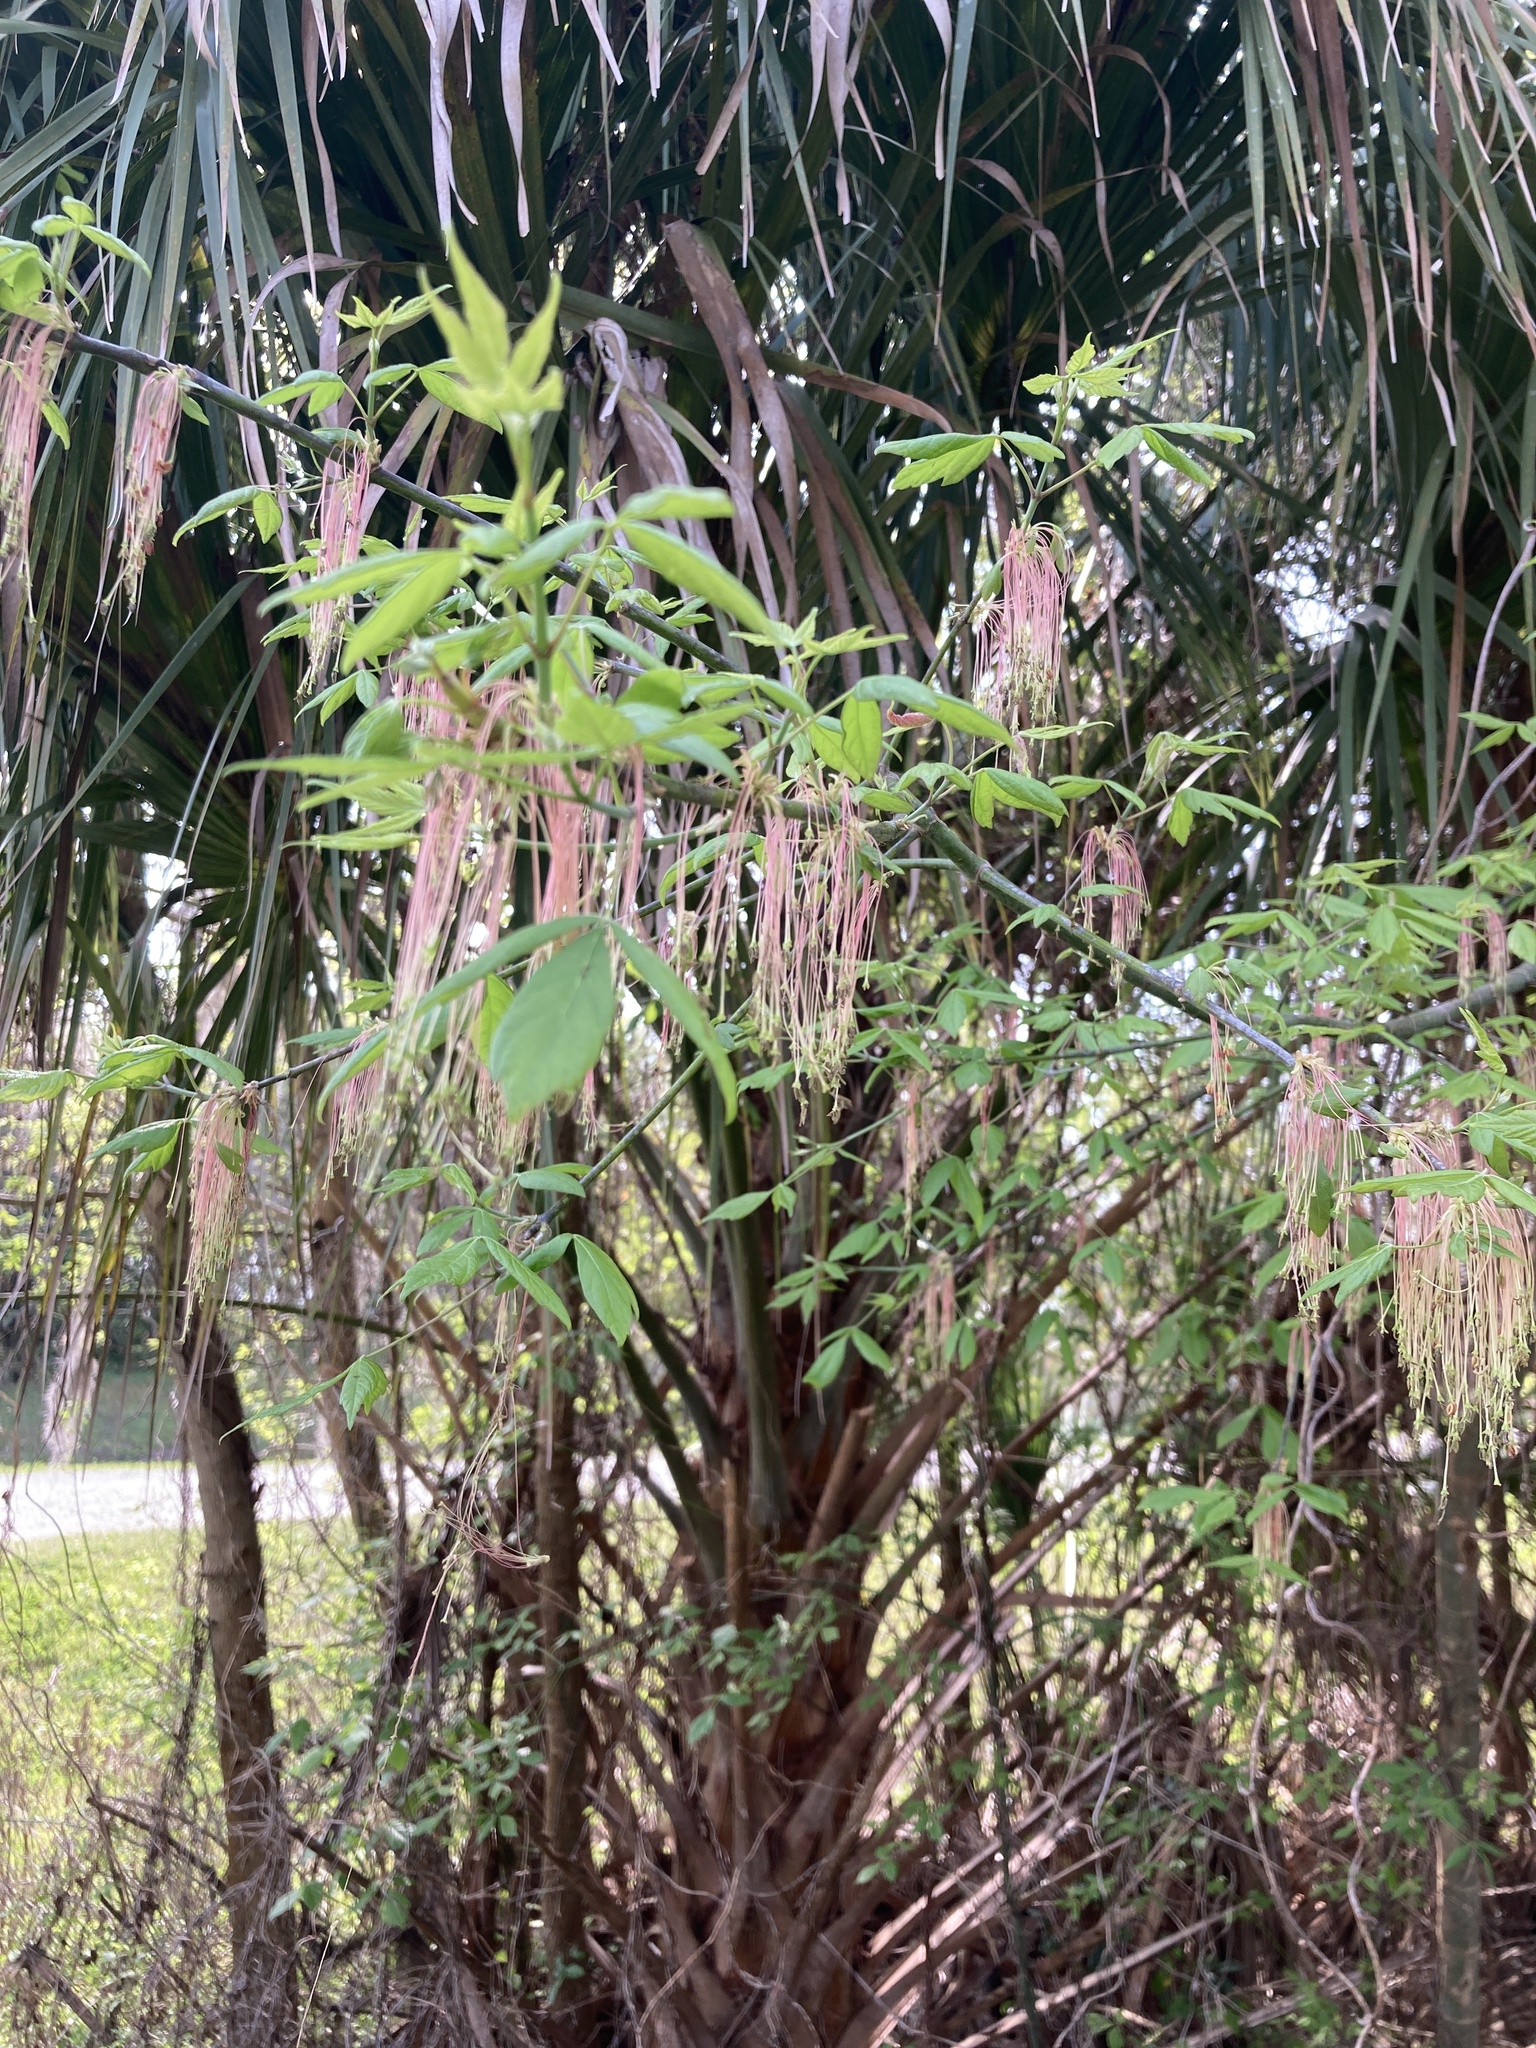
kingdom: Plantae
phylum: Tracheophyta
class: Magnoliopsida
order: Sapindales
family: Sapindaceae
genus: Acer
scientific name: Acer negundo
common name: Ashleaf maple
